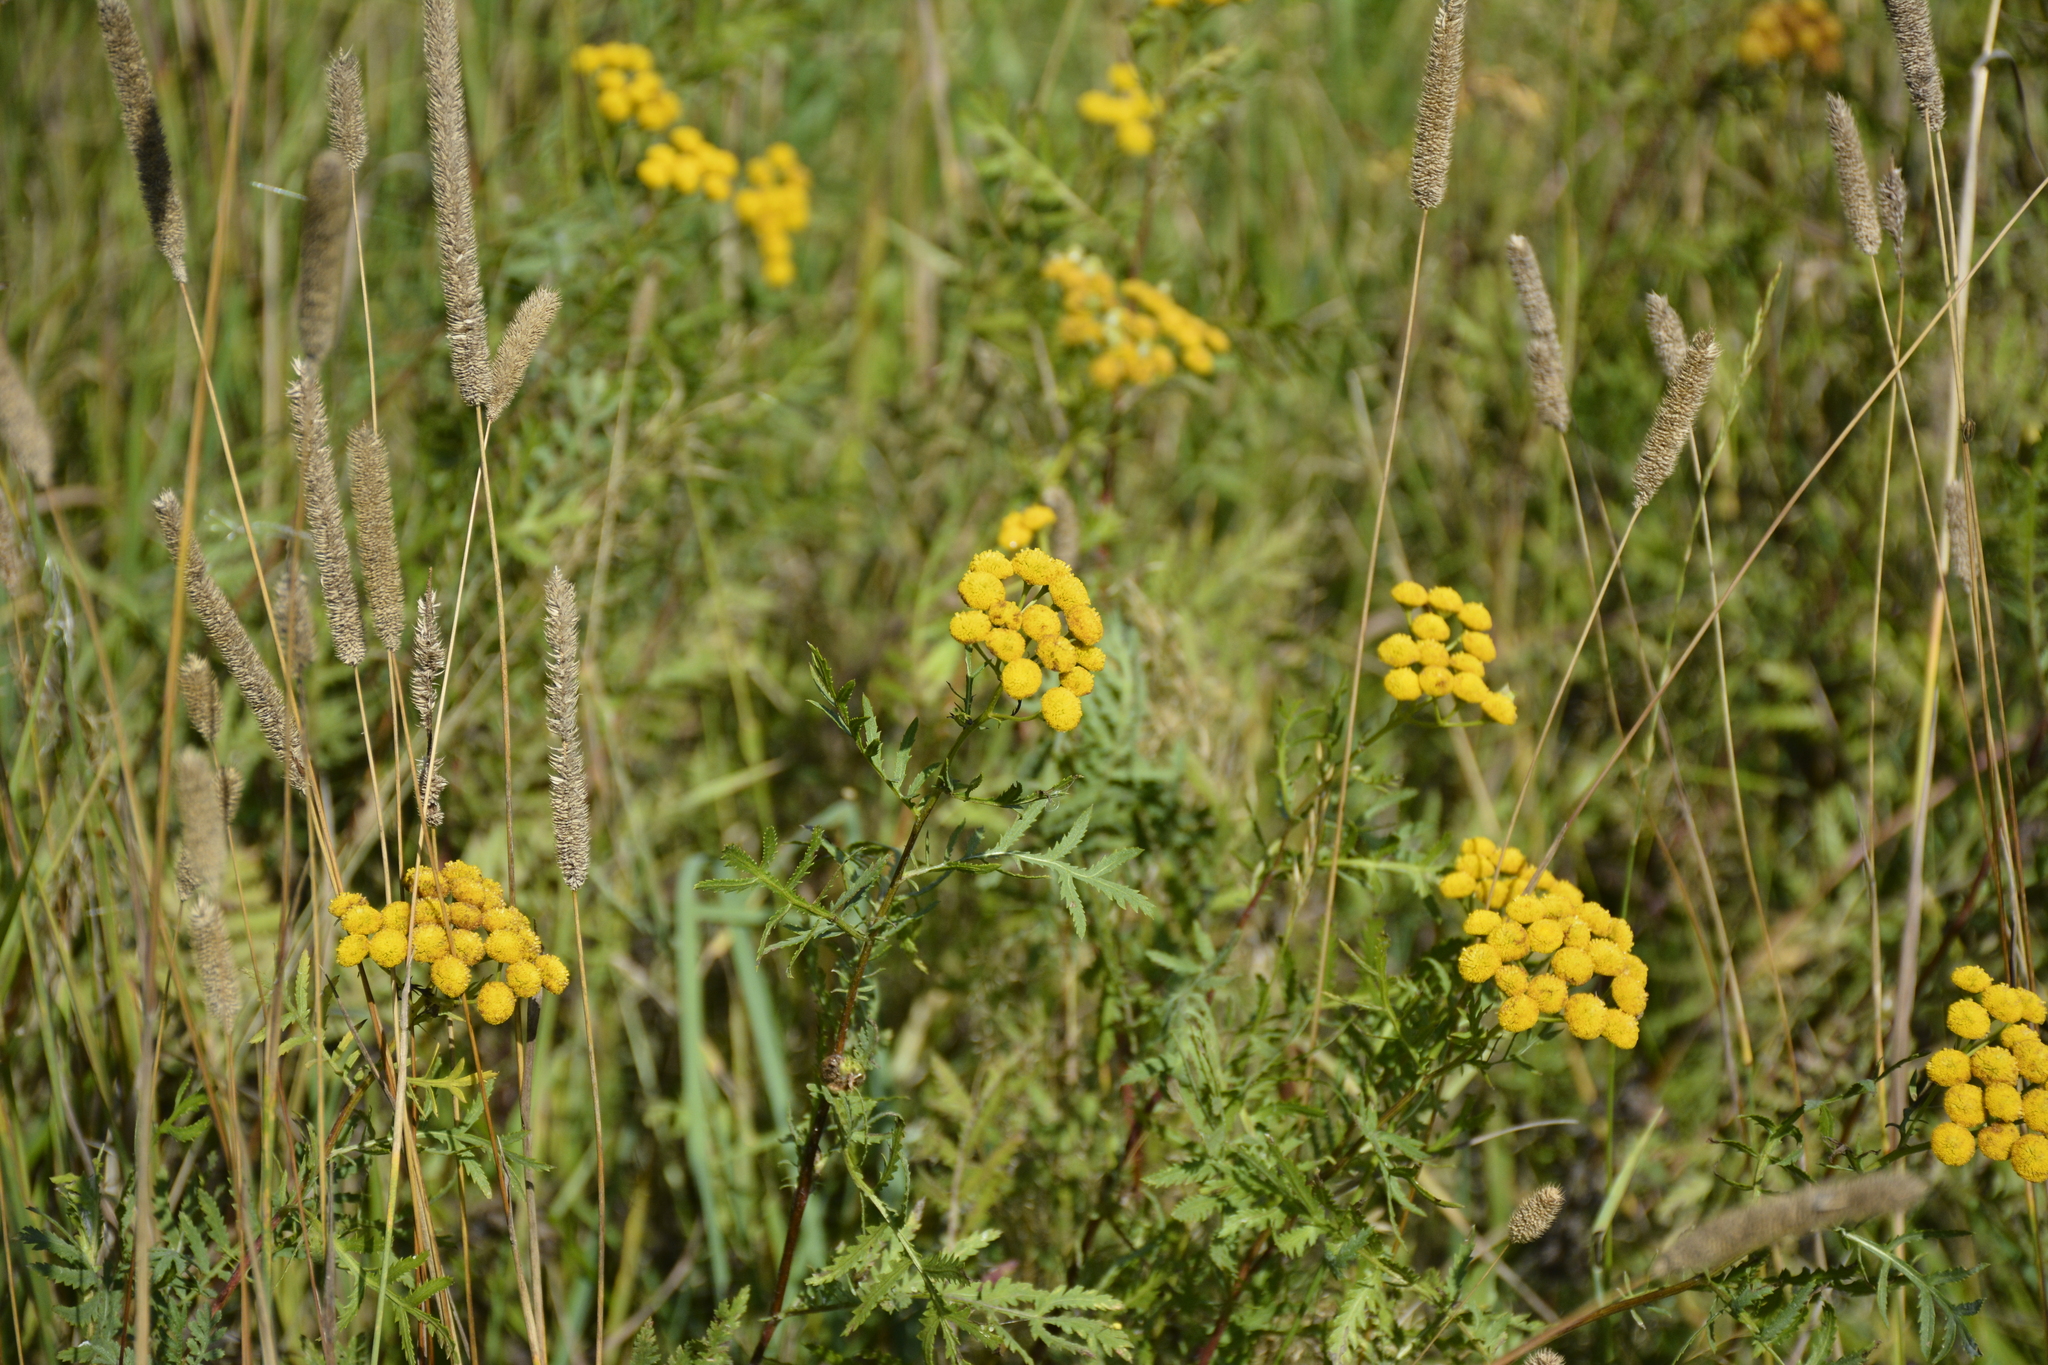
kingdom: Plantae
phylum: Tracheophyta
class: Magnoliopsida
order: Asterales
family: Asteraceae
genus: Tanacetum
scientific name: Tanacetum vulgare
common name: Common tansy
